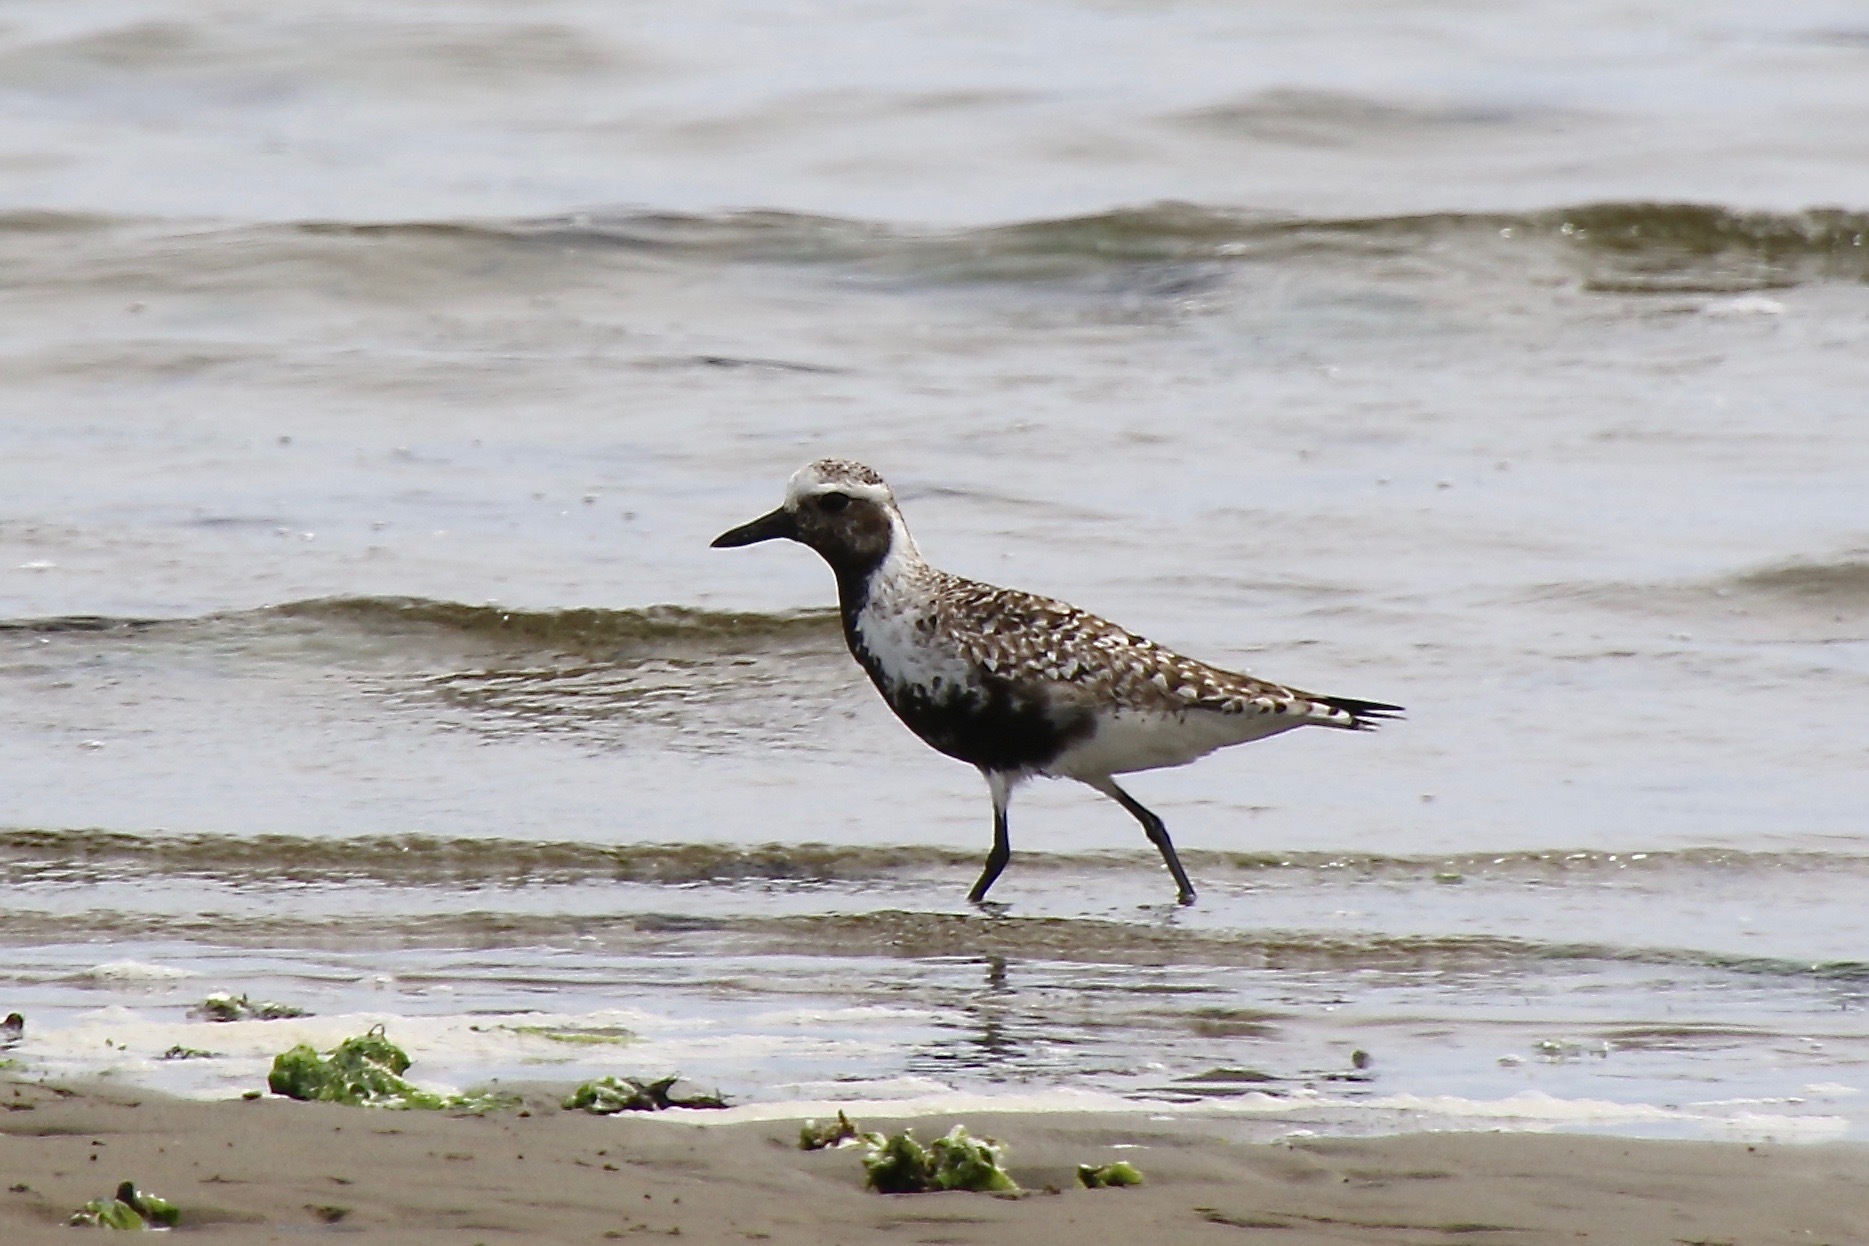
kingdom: Animalia
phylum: Chordata
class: Aves
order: Charadriiformes
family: Charadriidae
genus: Pluvialis
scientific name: Pluvialis squatarola
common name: Grey plover
